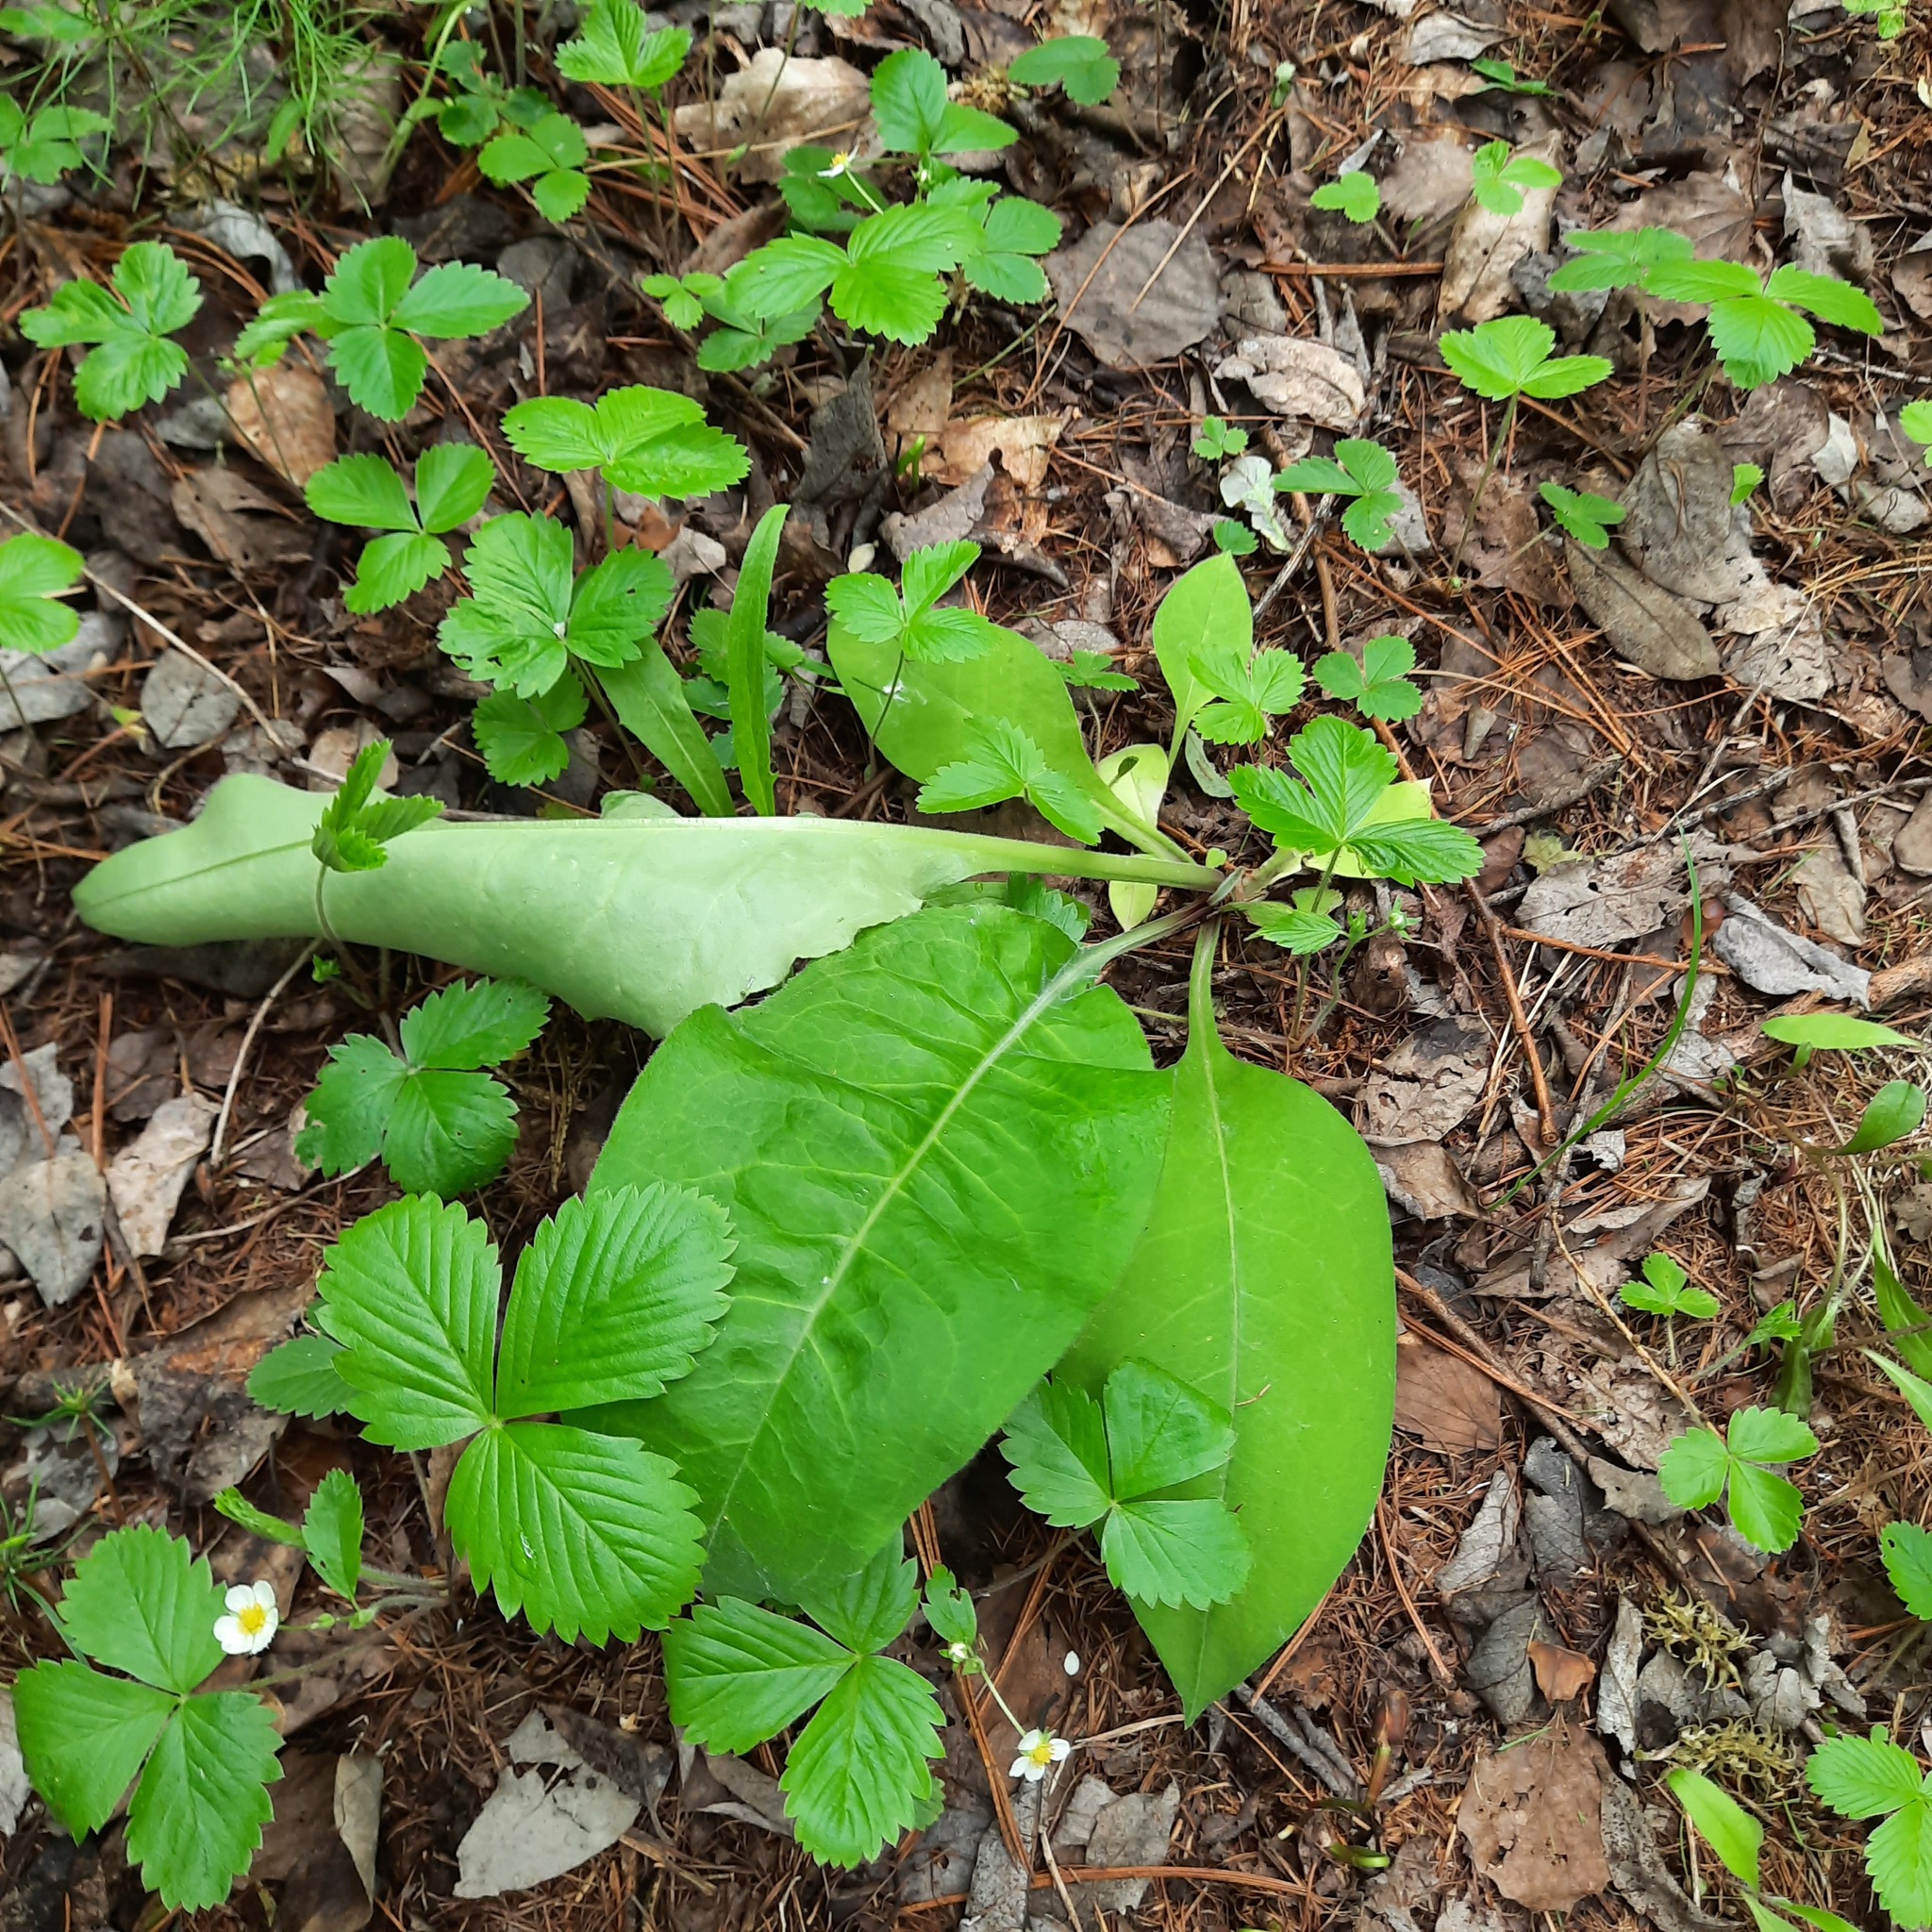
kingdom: Plantae
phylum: Tracheophyta
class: Magnoliopsida
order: Boraginales
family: Boraginaceae
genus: Pulmonaria
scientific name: Pulmonaria mollis
